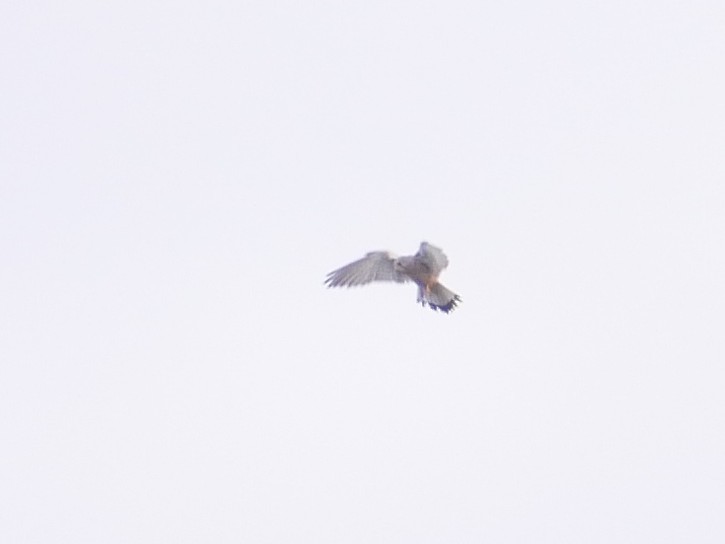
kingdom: Animalia
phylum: Chordata
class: Aves
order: Falconiformes
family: Falconidae
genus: Falco
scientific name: Falco tinnunculus
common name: Common kestrel
